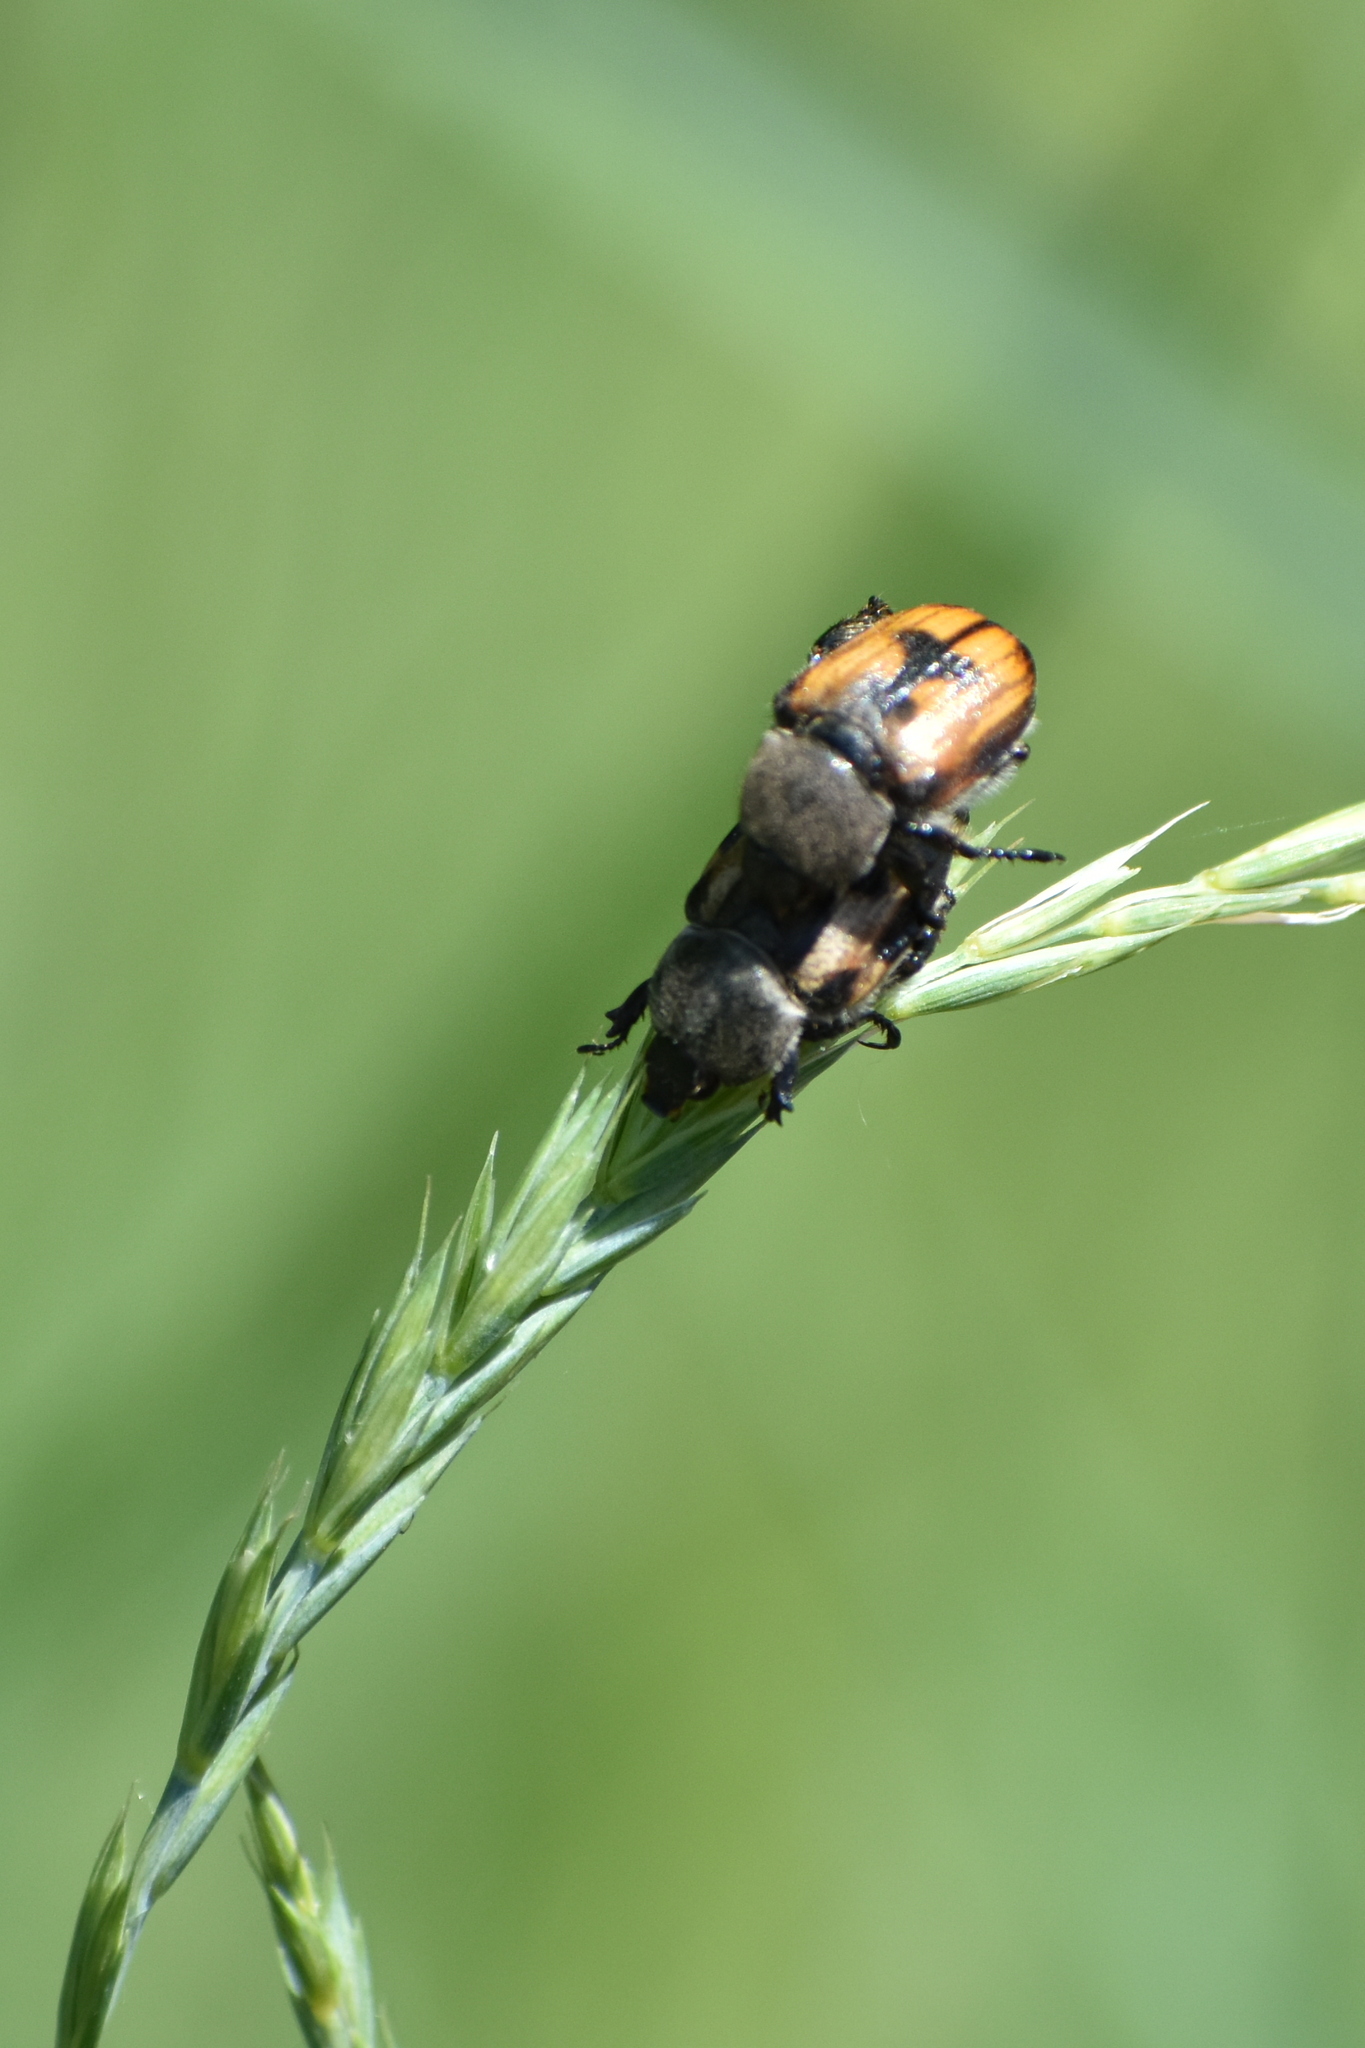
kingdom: Animalia
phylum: Arthropoda
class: Insecta
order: Coleoptera
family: Scarabaeidae
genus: Anisoplia
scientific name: Anisoplia agricola
